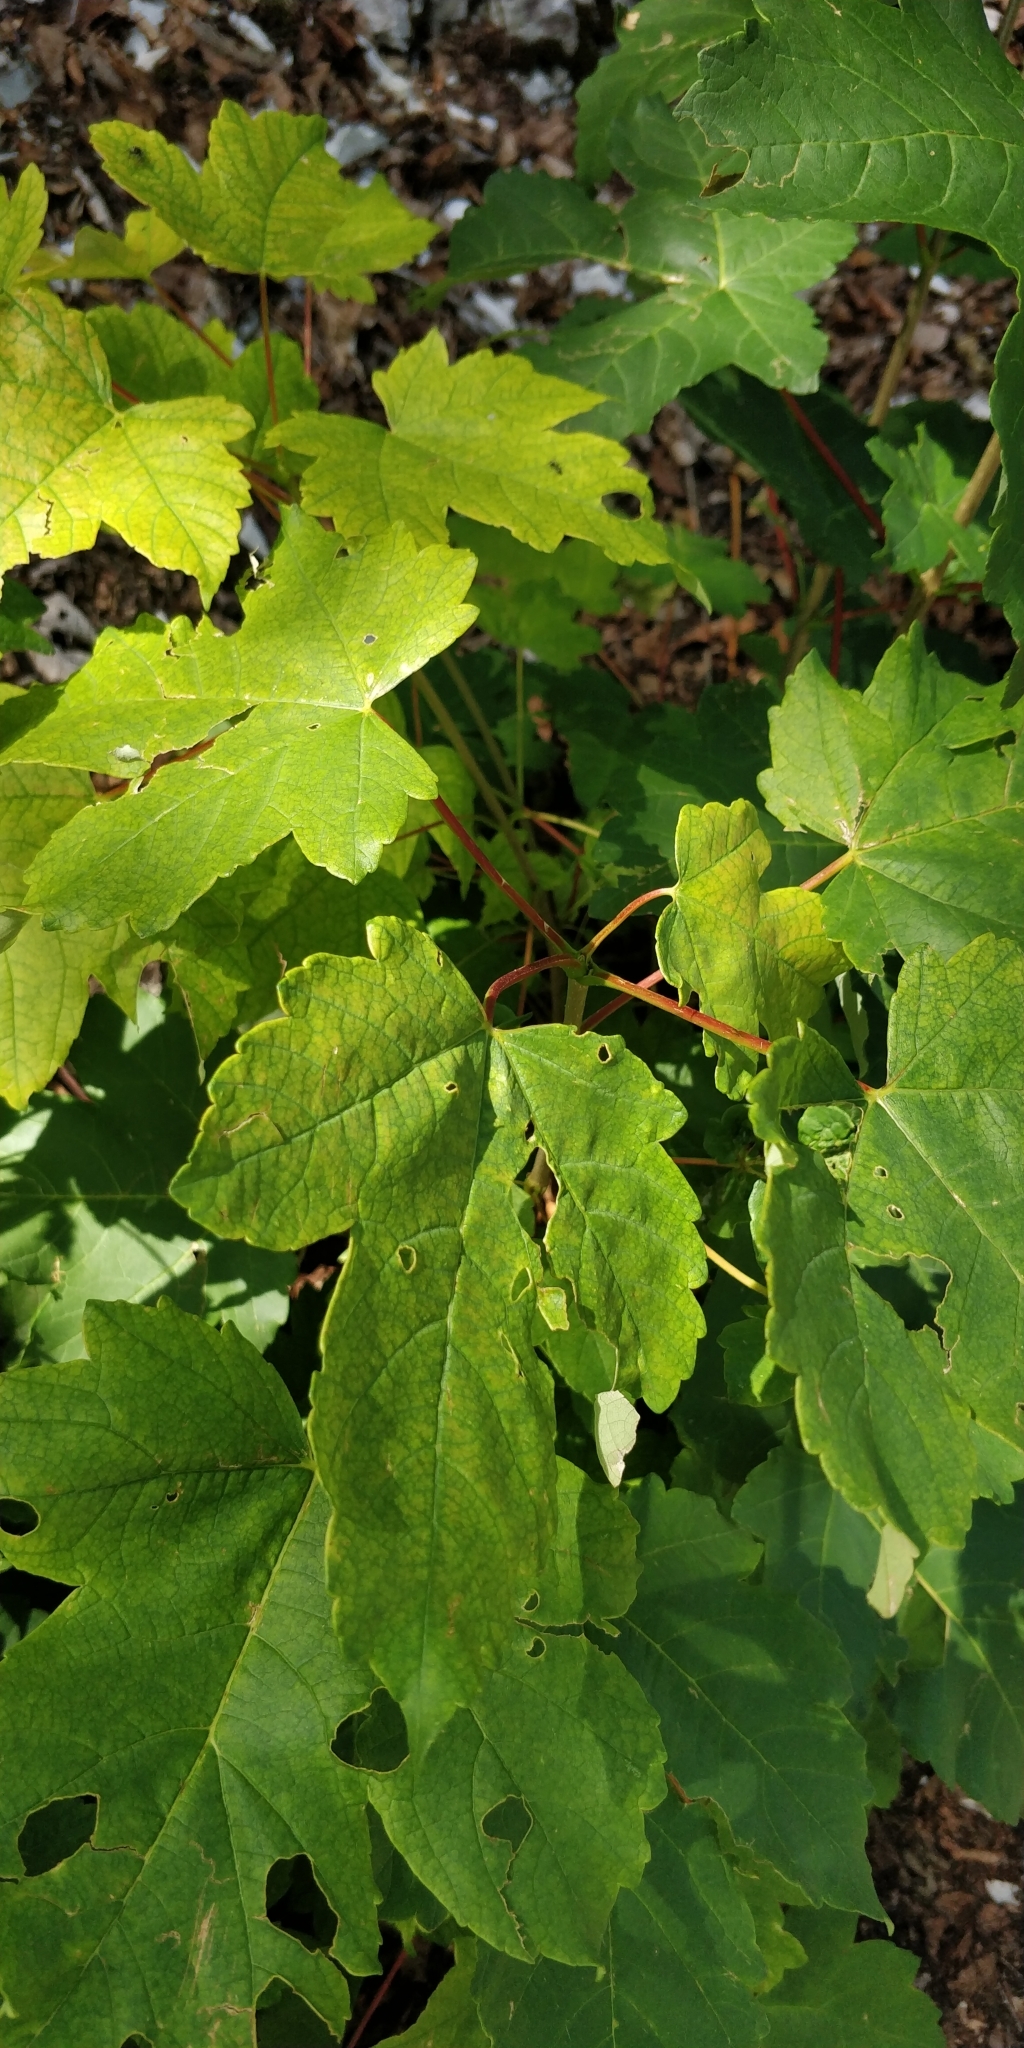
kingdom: Plantae
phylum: Tracheophyta
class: Magnoliopsida
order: Sapindales
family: Sapindaceae
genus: Acer
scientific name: Acer pseudoplatanus
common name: Sycamore
